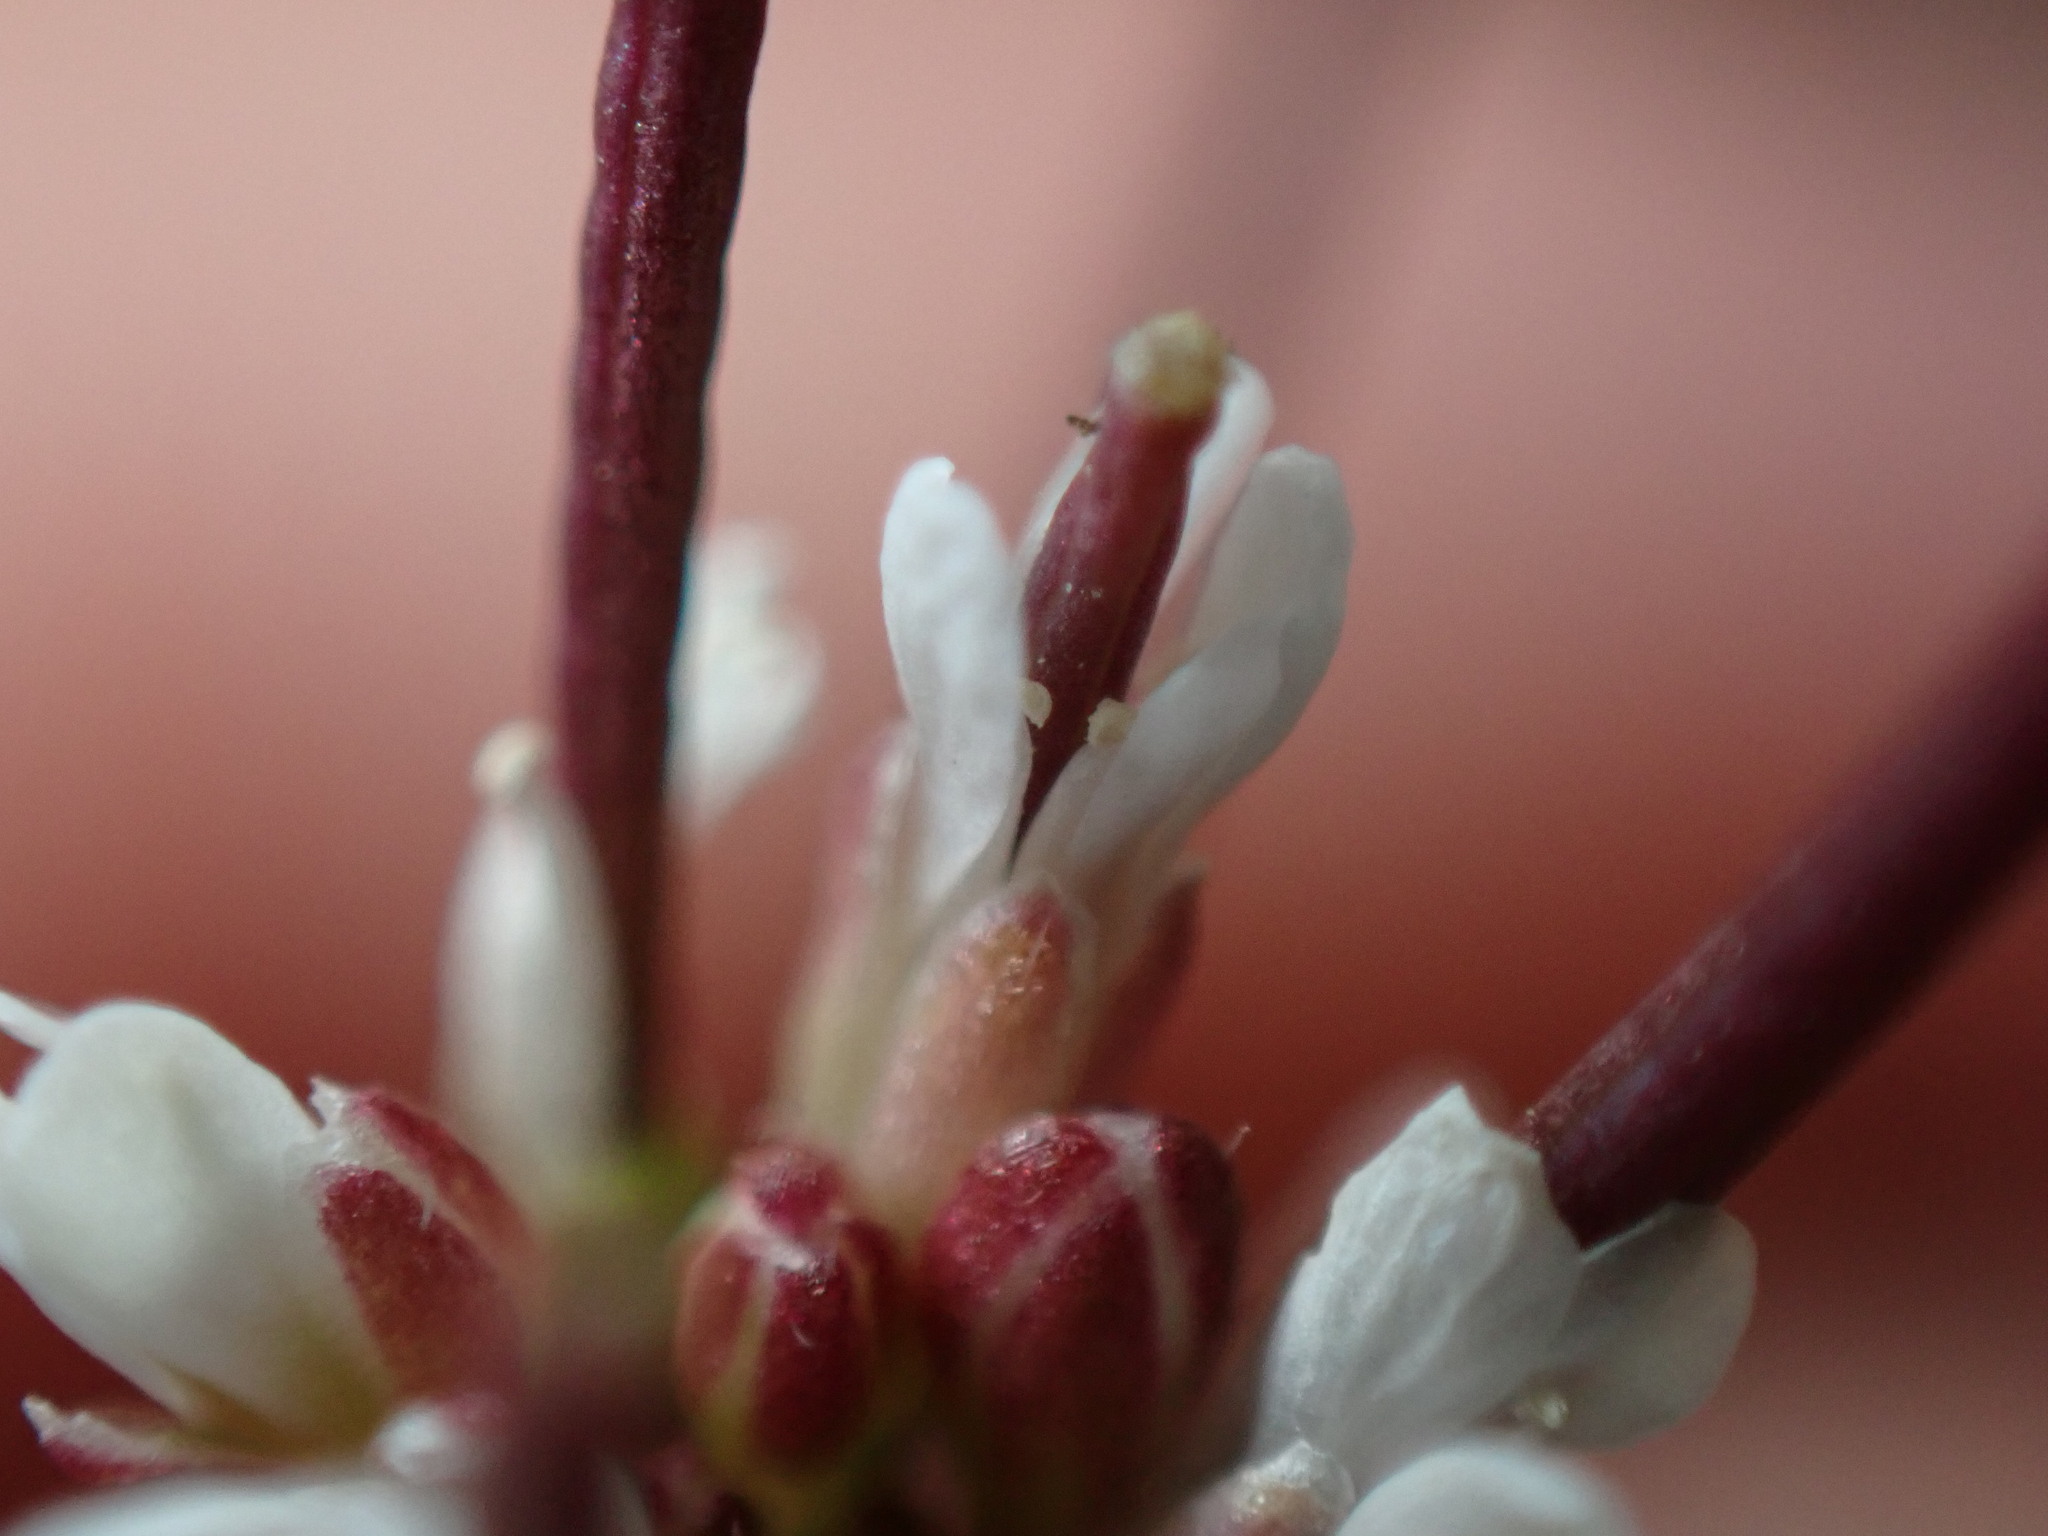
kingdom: Plantae
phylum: Tracheophyta
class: Magnoliopsida
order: Brassicales
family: Brassicaceae
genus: Cardamine
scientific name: Cardamine hirsuta
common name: Hairy bittercress
